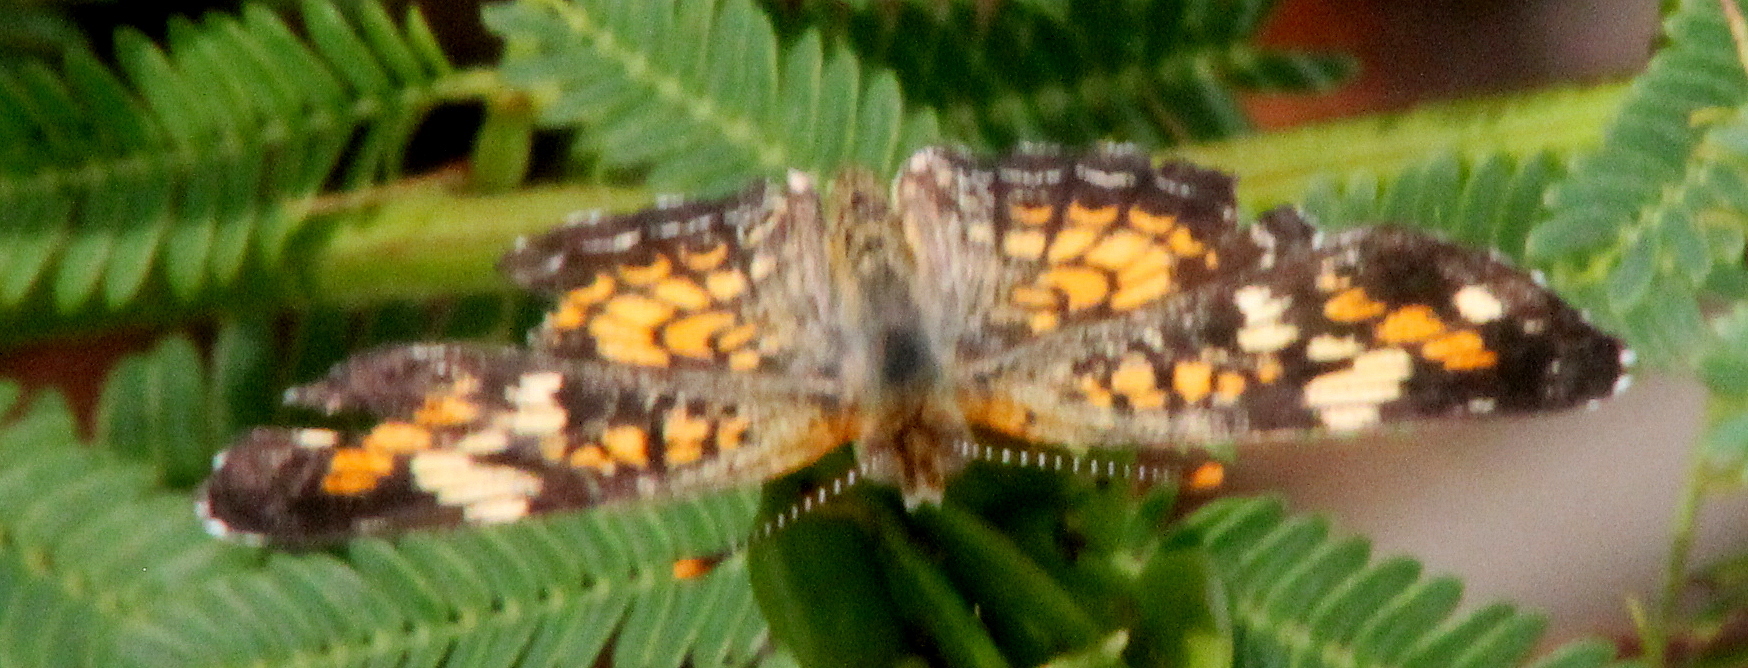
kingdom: Animalia
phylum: Arthropoda
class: Insecta
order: Lepidoptera
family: Nymphalidae
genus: Phyciodes
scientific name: Phyciodes phaon
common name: Phaon crescent
